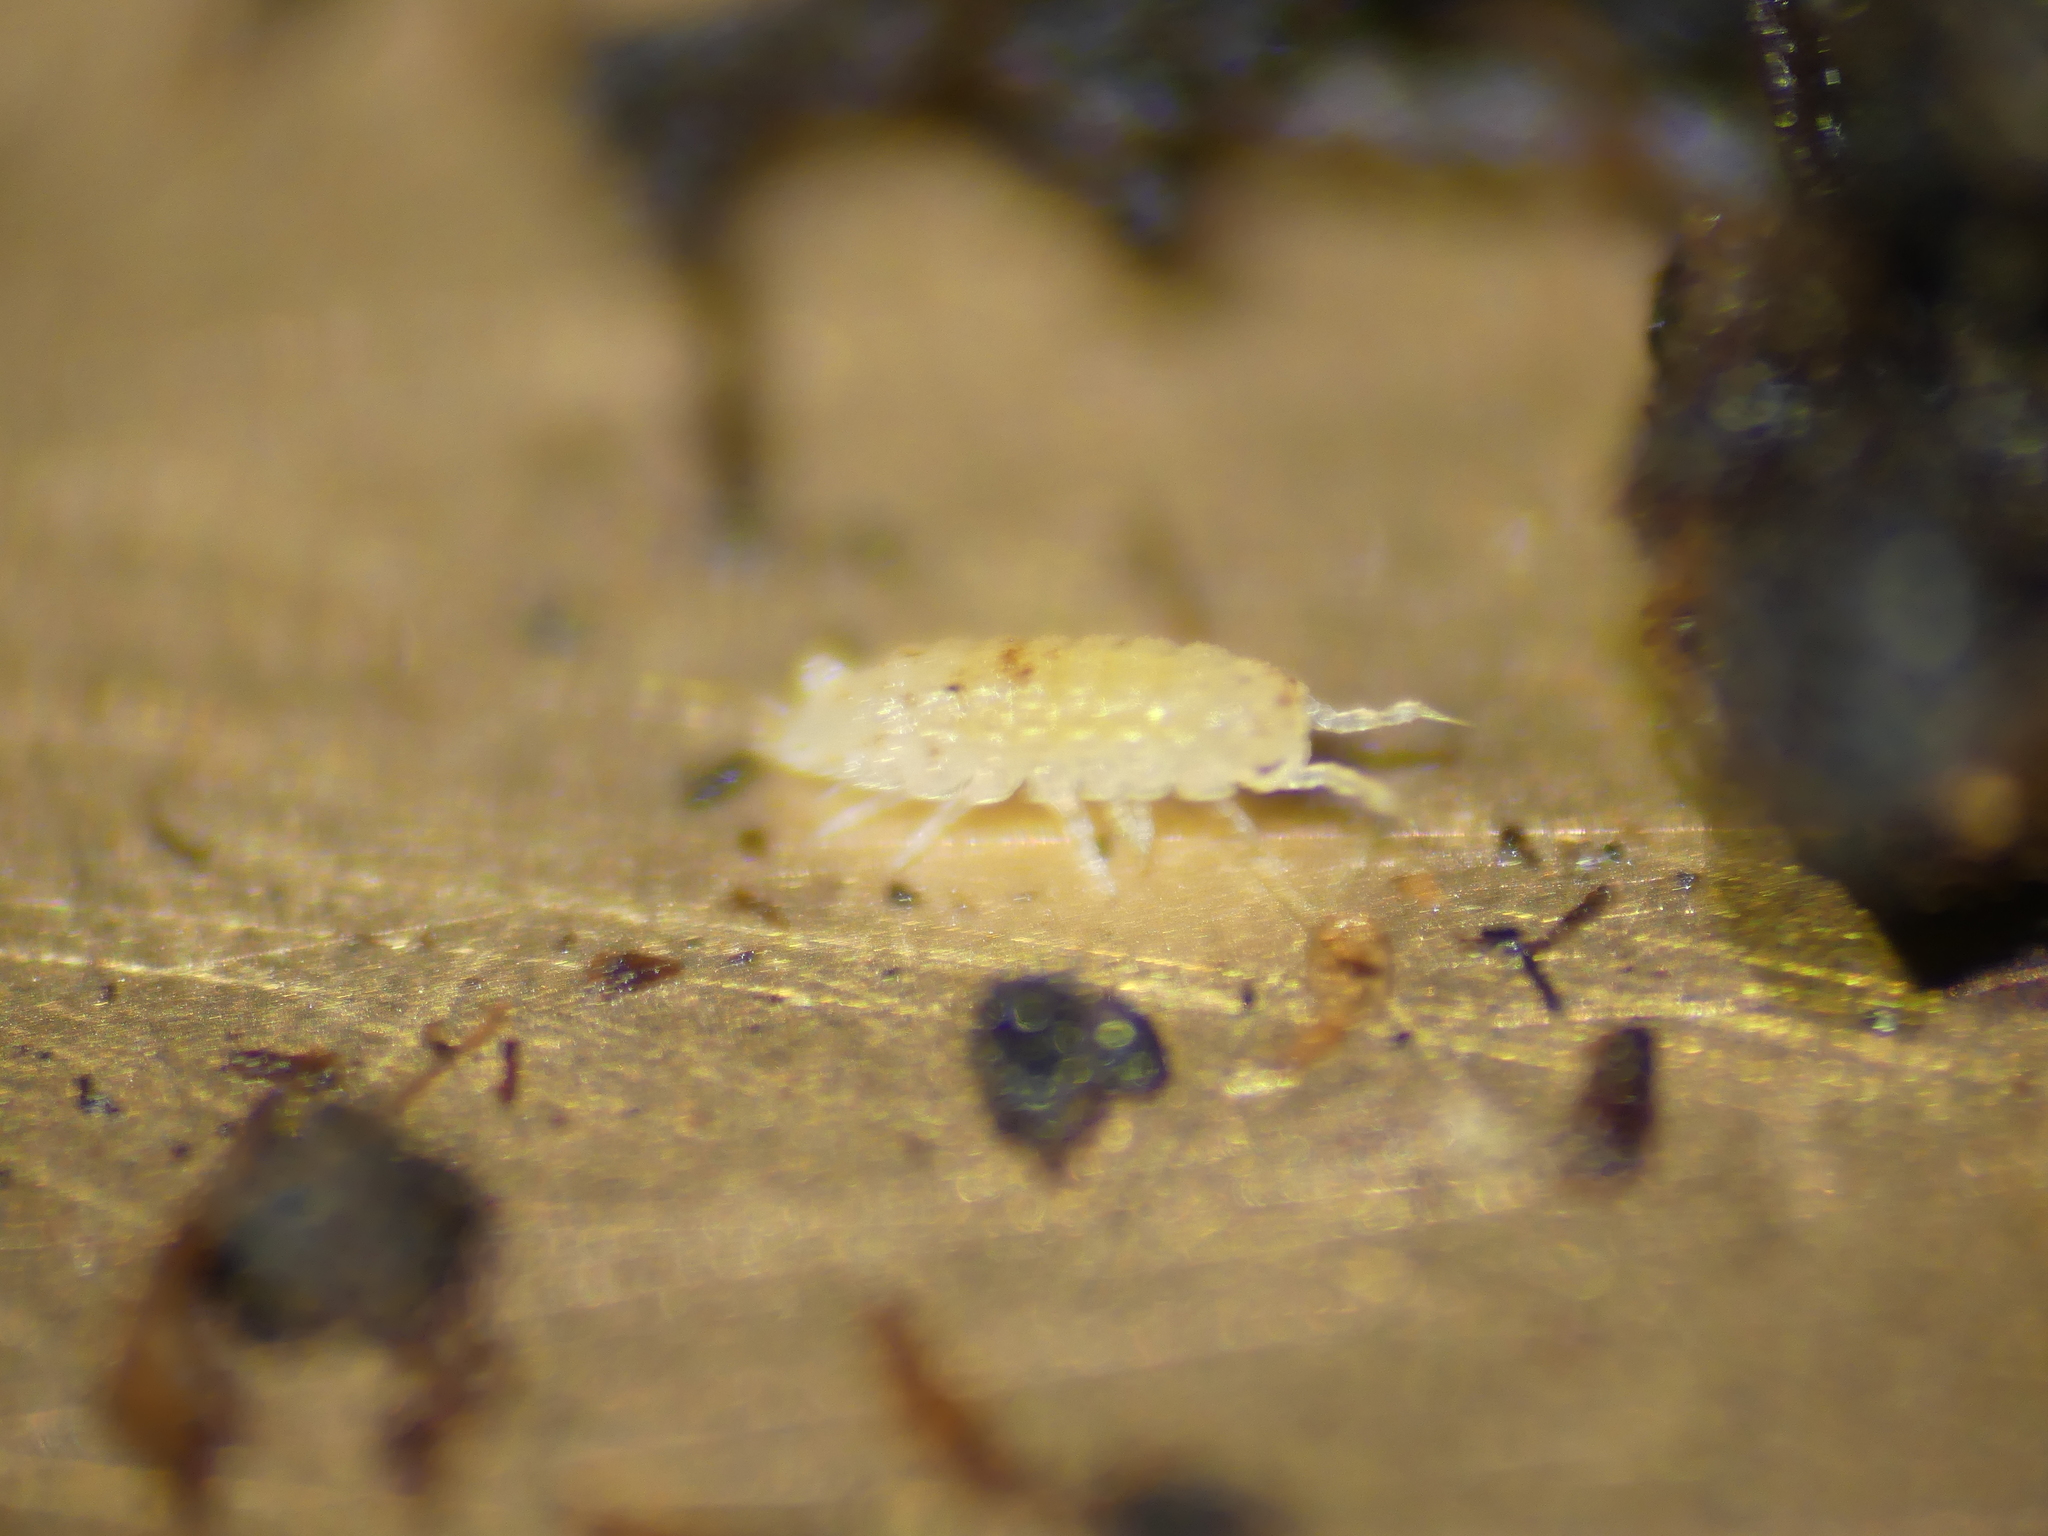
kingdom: Animalia
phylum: Arthropoda
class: Malacostraca
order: Isopoda
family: Trichoniscidae
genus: Haplophthalmus
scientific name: Haplophthalmus danicus
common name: Pillbug
